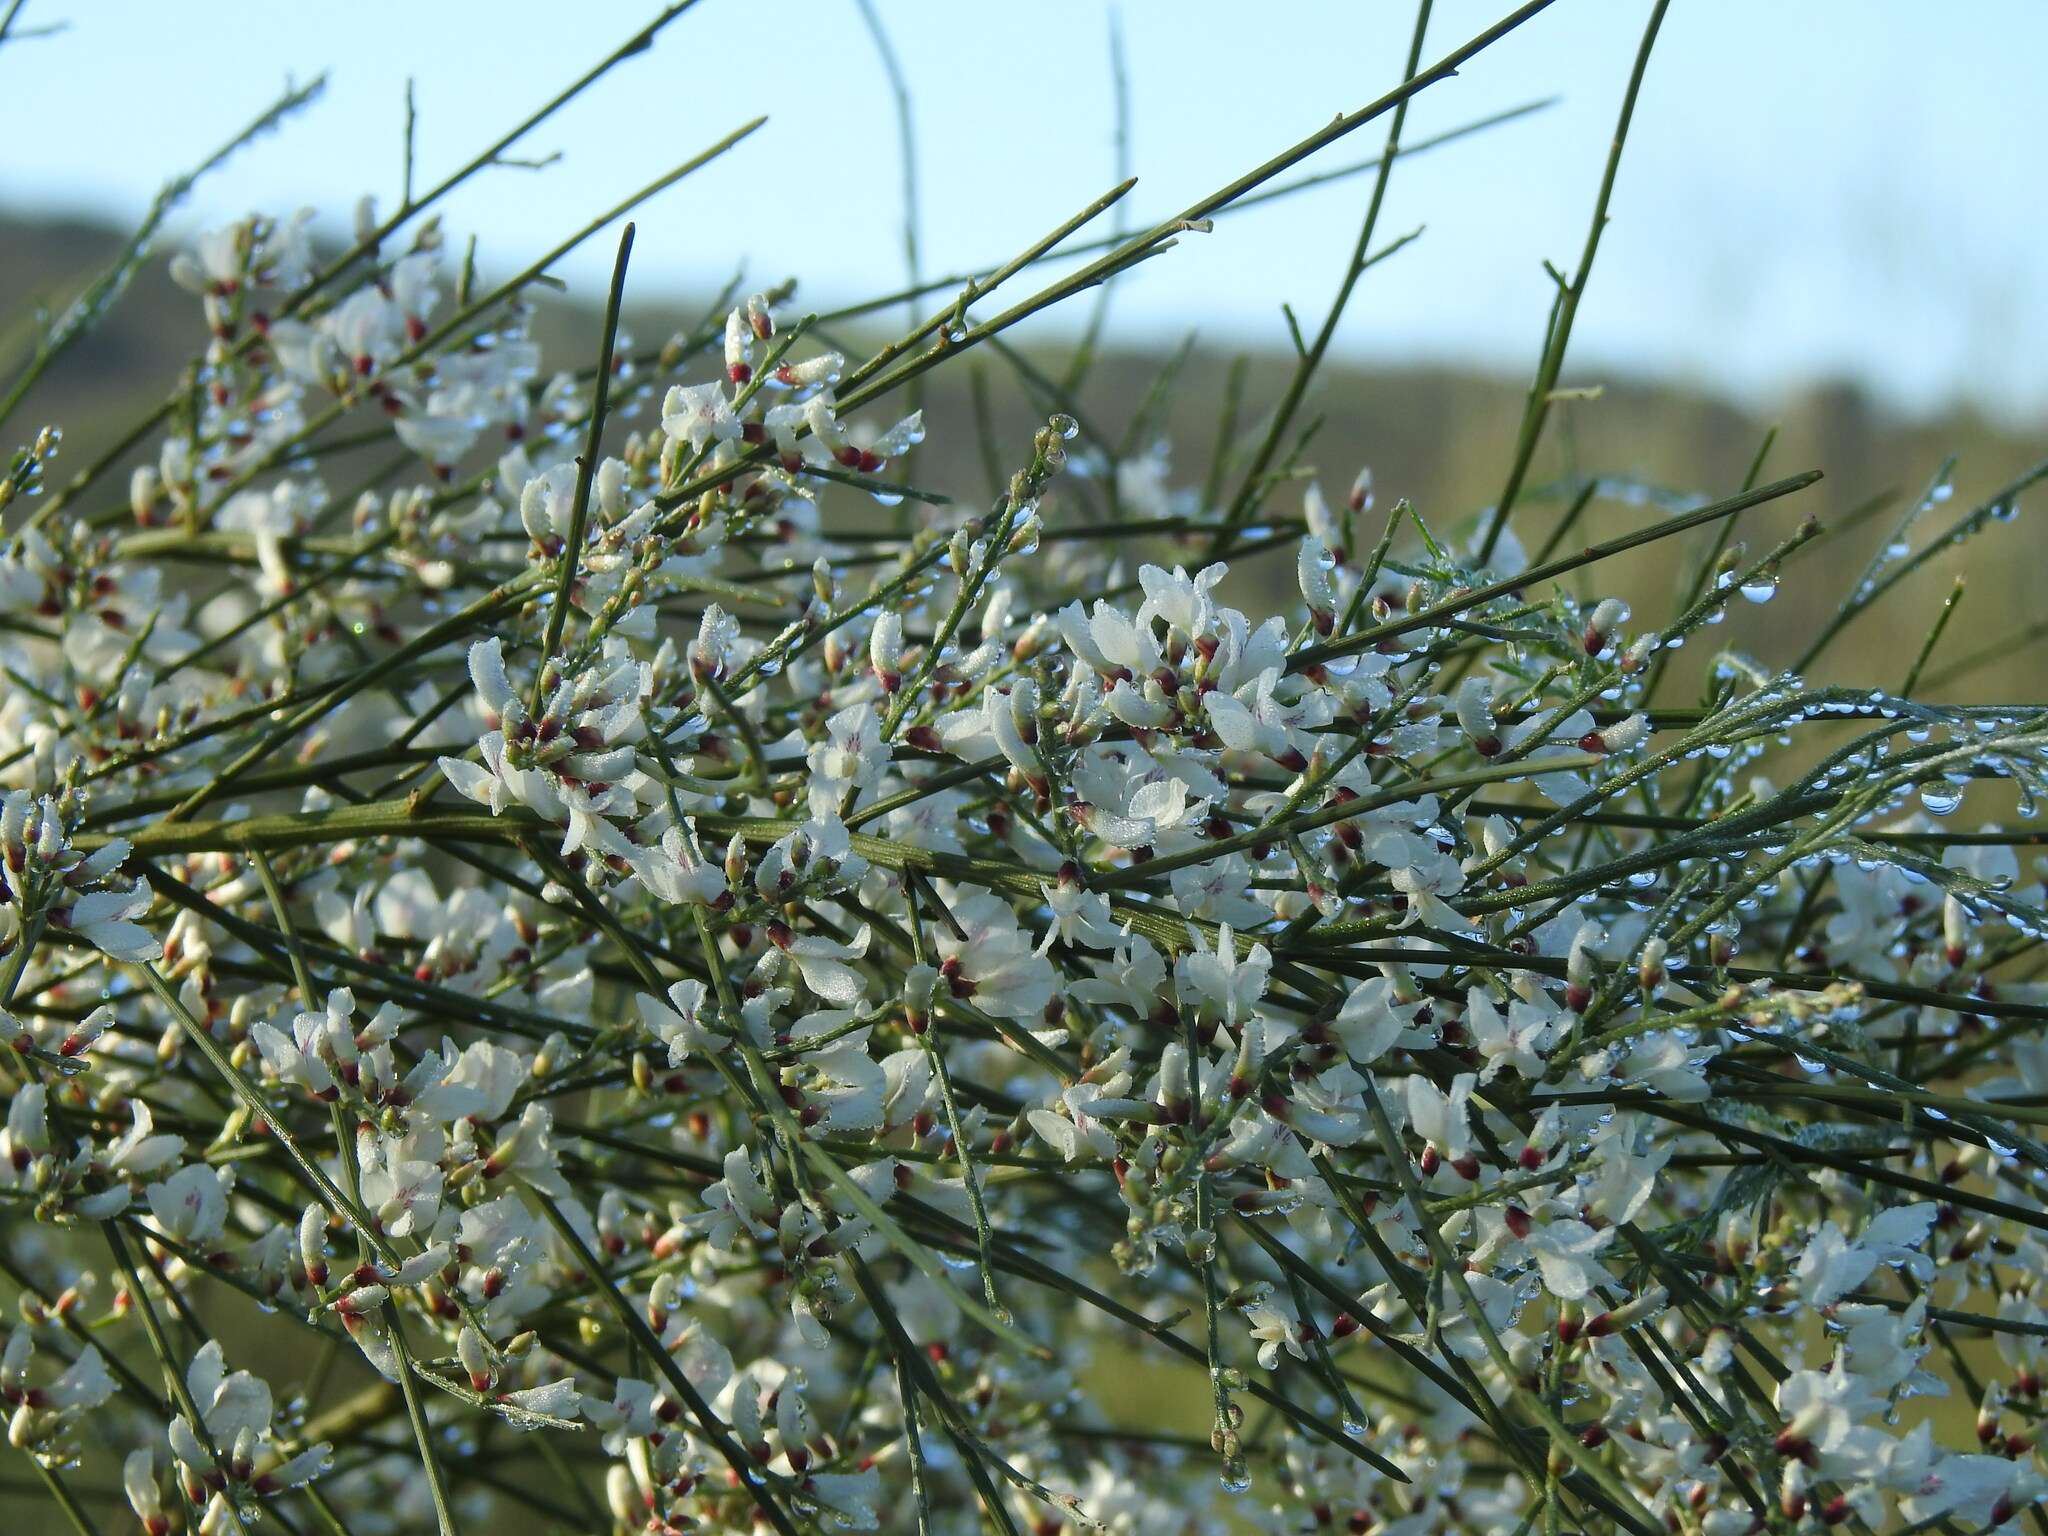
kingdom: Plantae
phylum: Tracheophyta
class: Magnoliopsida
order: Fabales
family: Fabaceae
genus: Retama
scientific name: Retama monosperma
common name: Bridal broom
